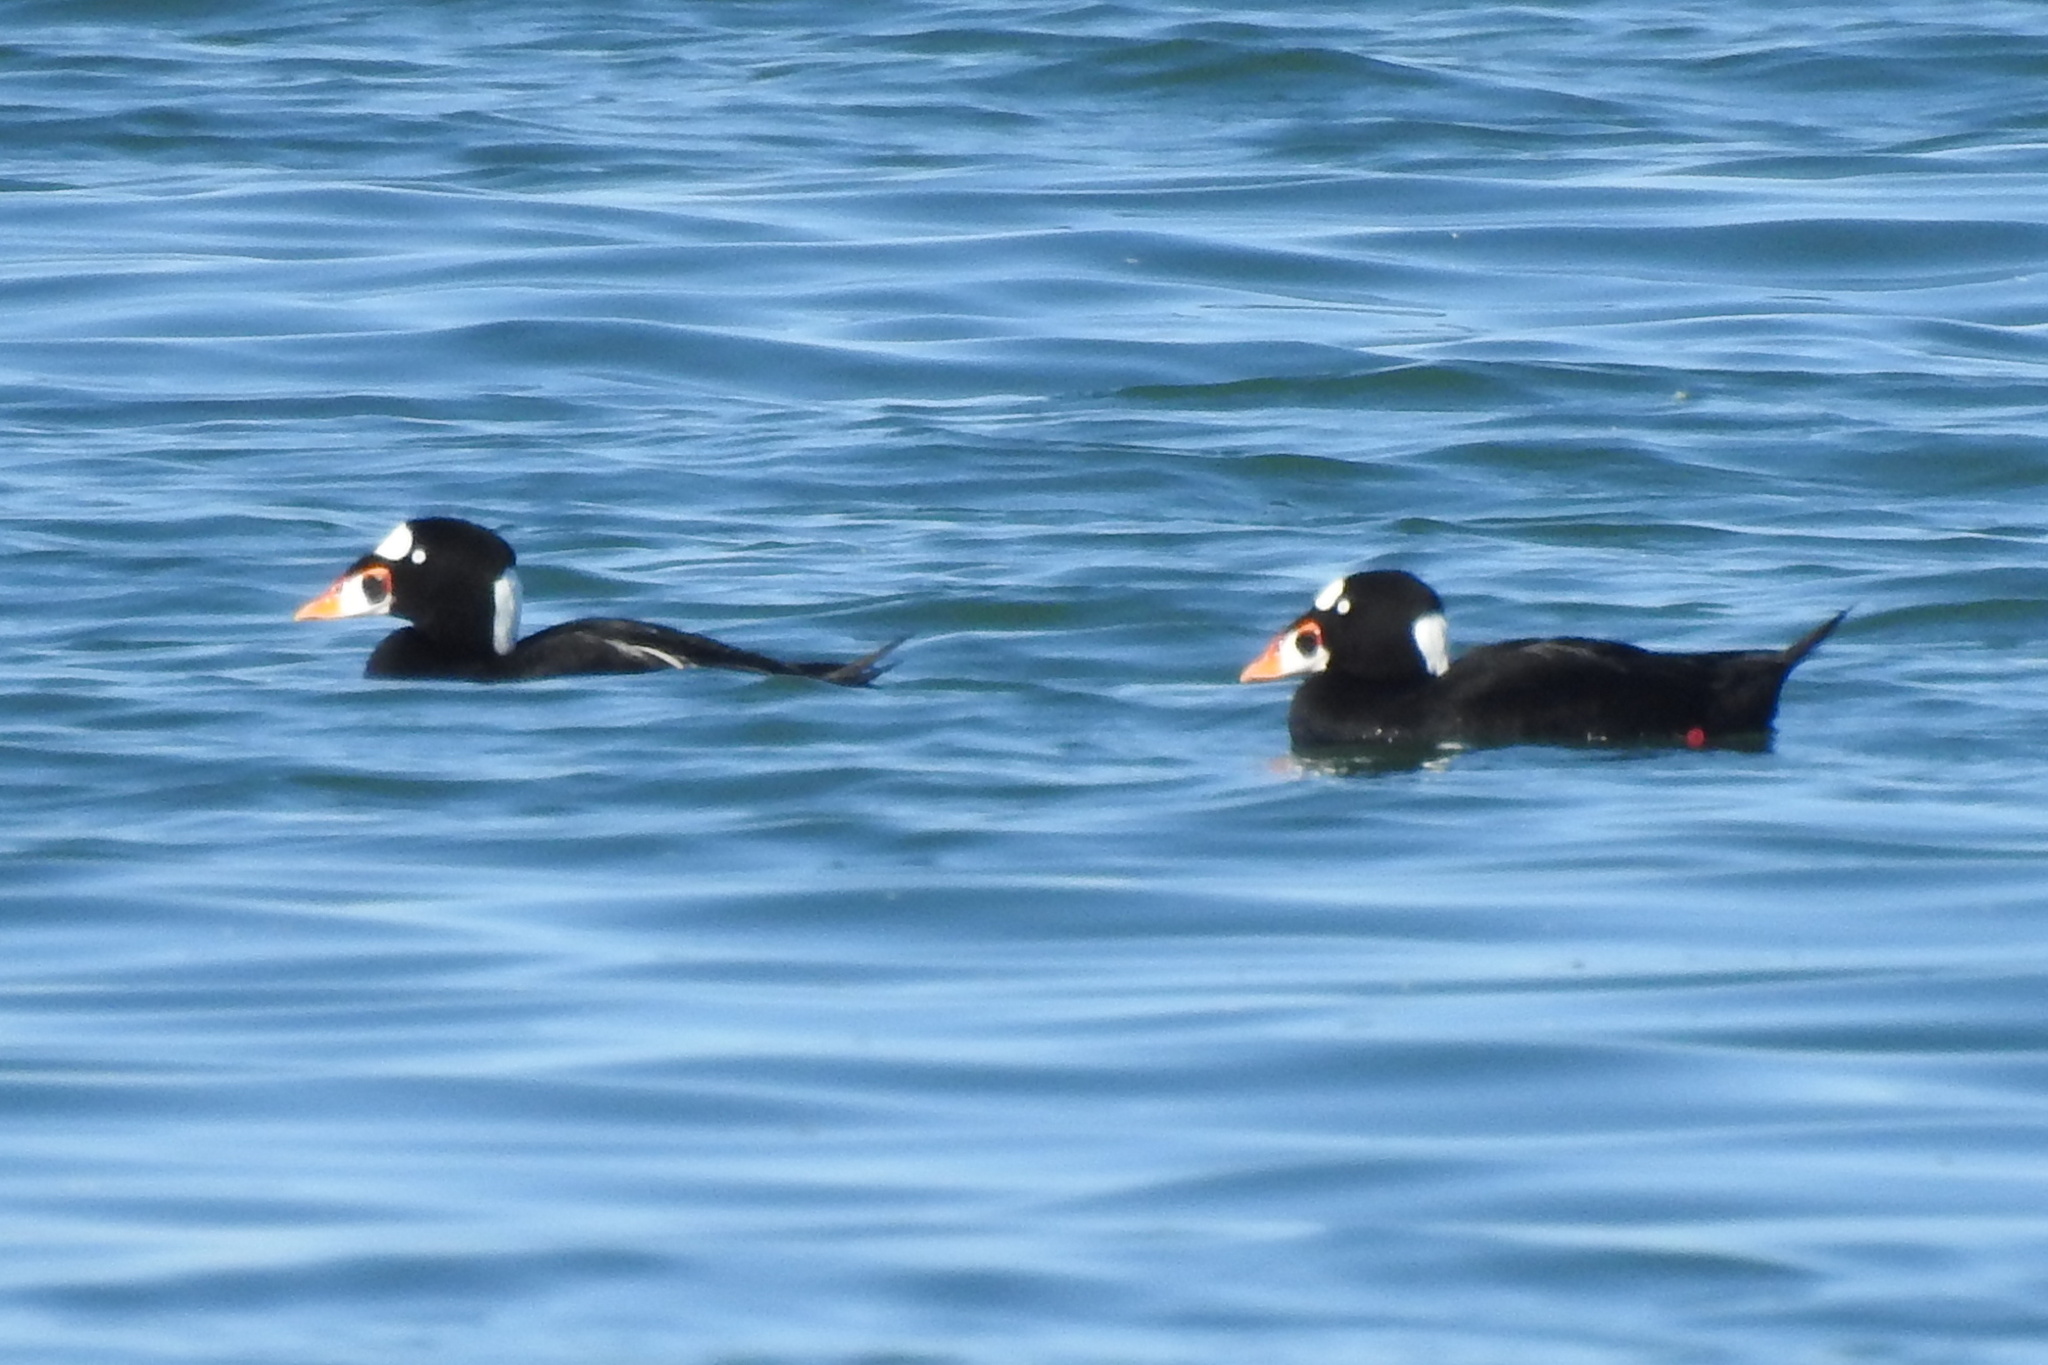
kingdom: Animalia
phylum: Chordata
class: Aves
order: Anseriformes
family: Anatidae
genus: Melanitta
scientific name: Melanitta perspicillata
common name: Surf scoter
